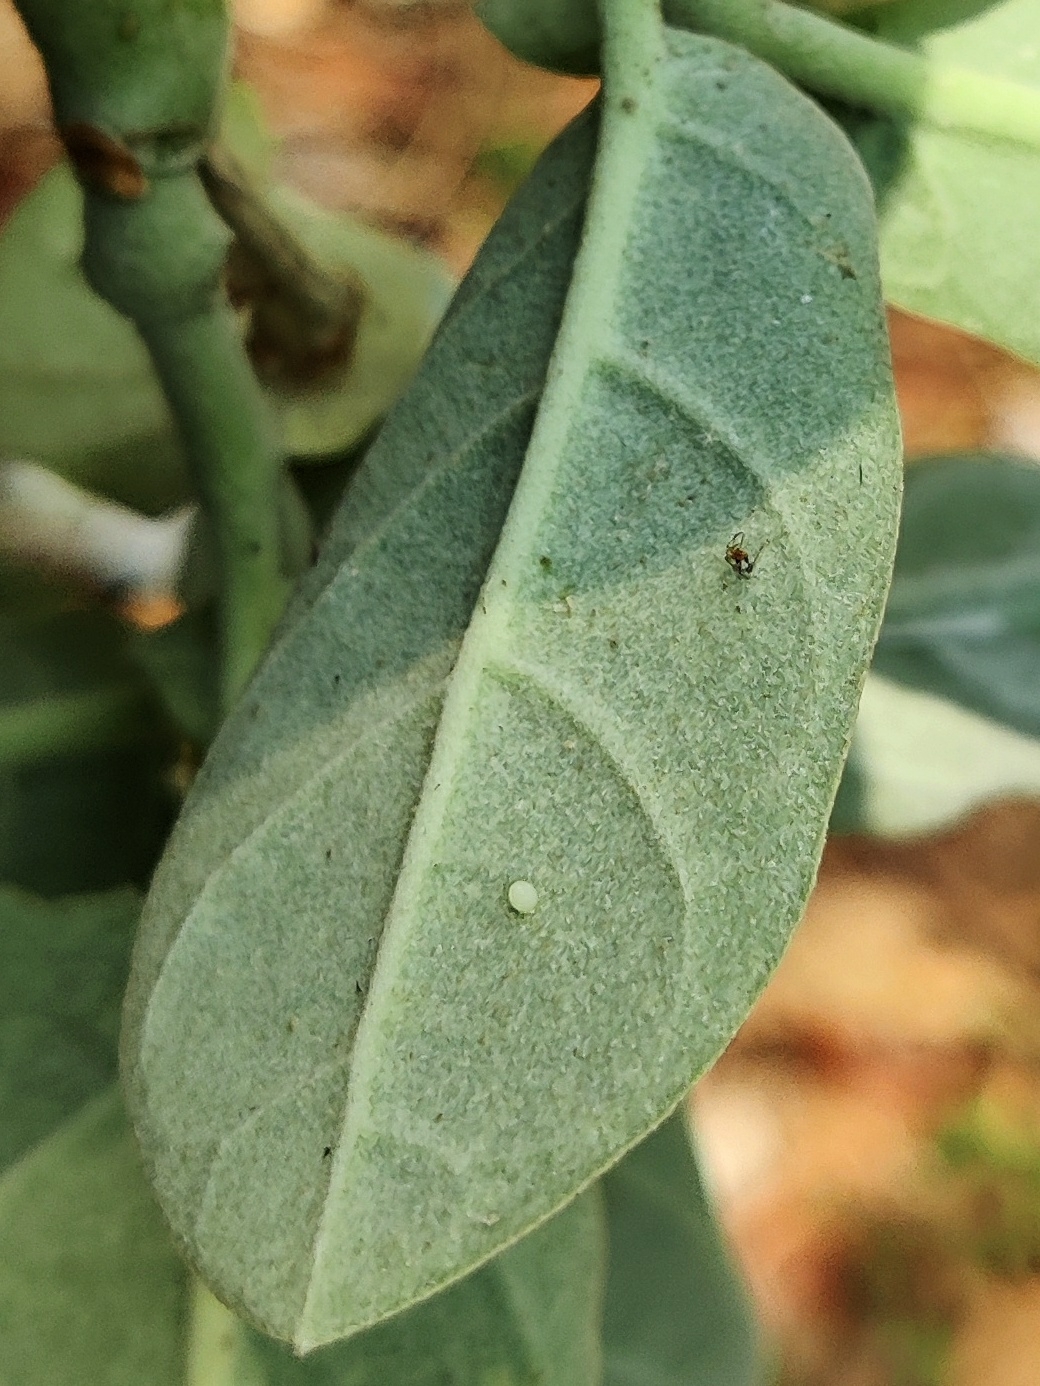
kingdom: Animalia
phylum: Arthropoda
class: Insecta
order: Lepidoptera
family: Nymphalidae
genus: Danaus
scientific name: Danaus chrysippus
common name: Plain tiger
